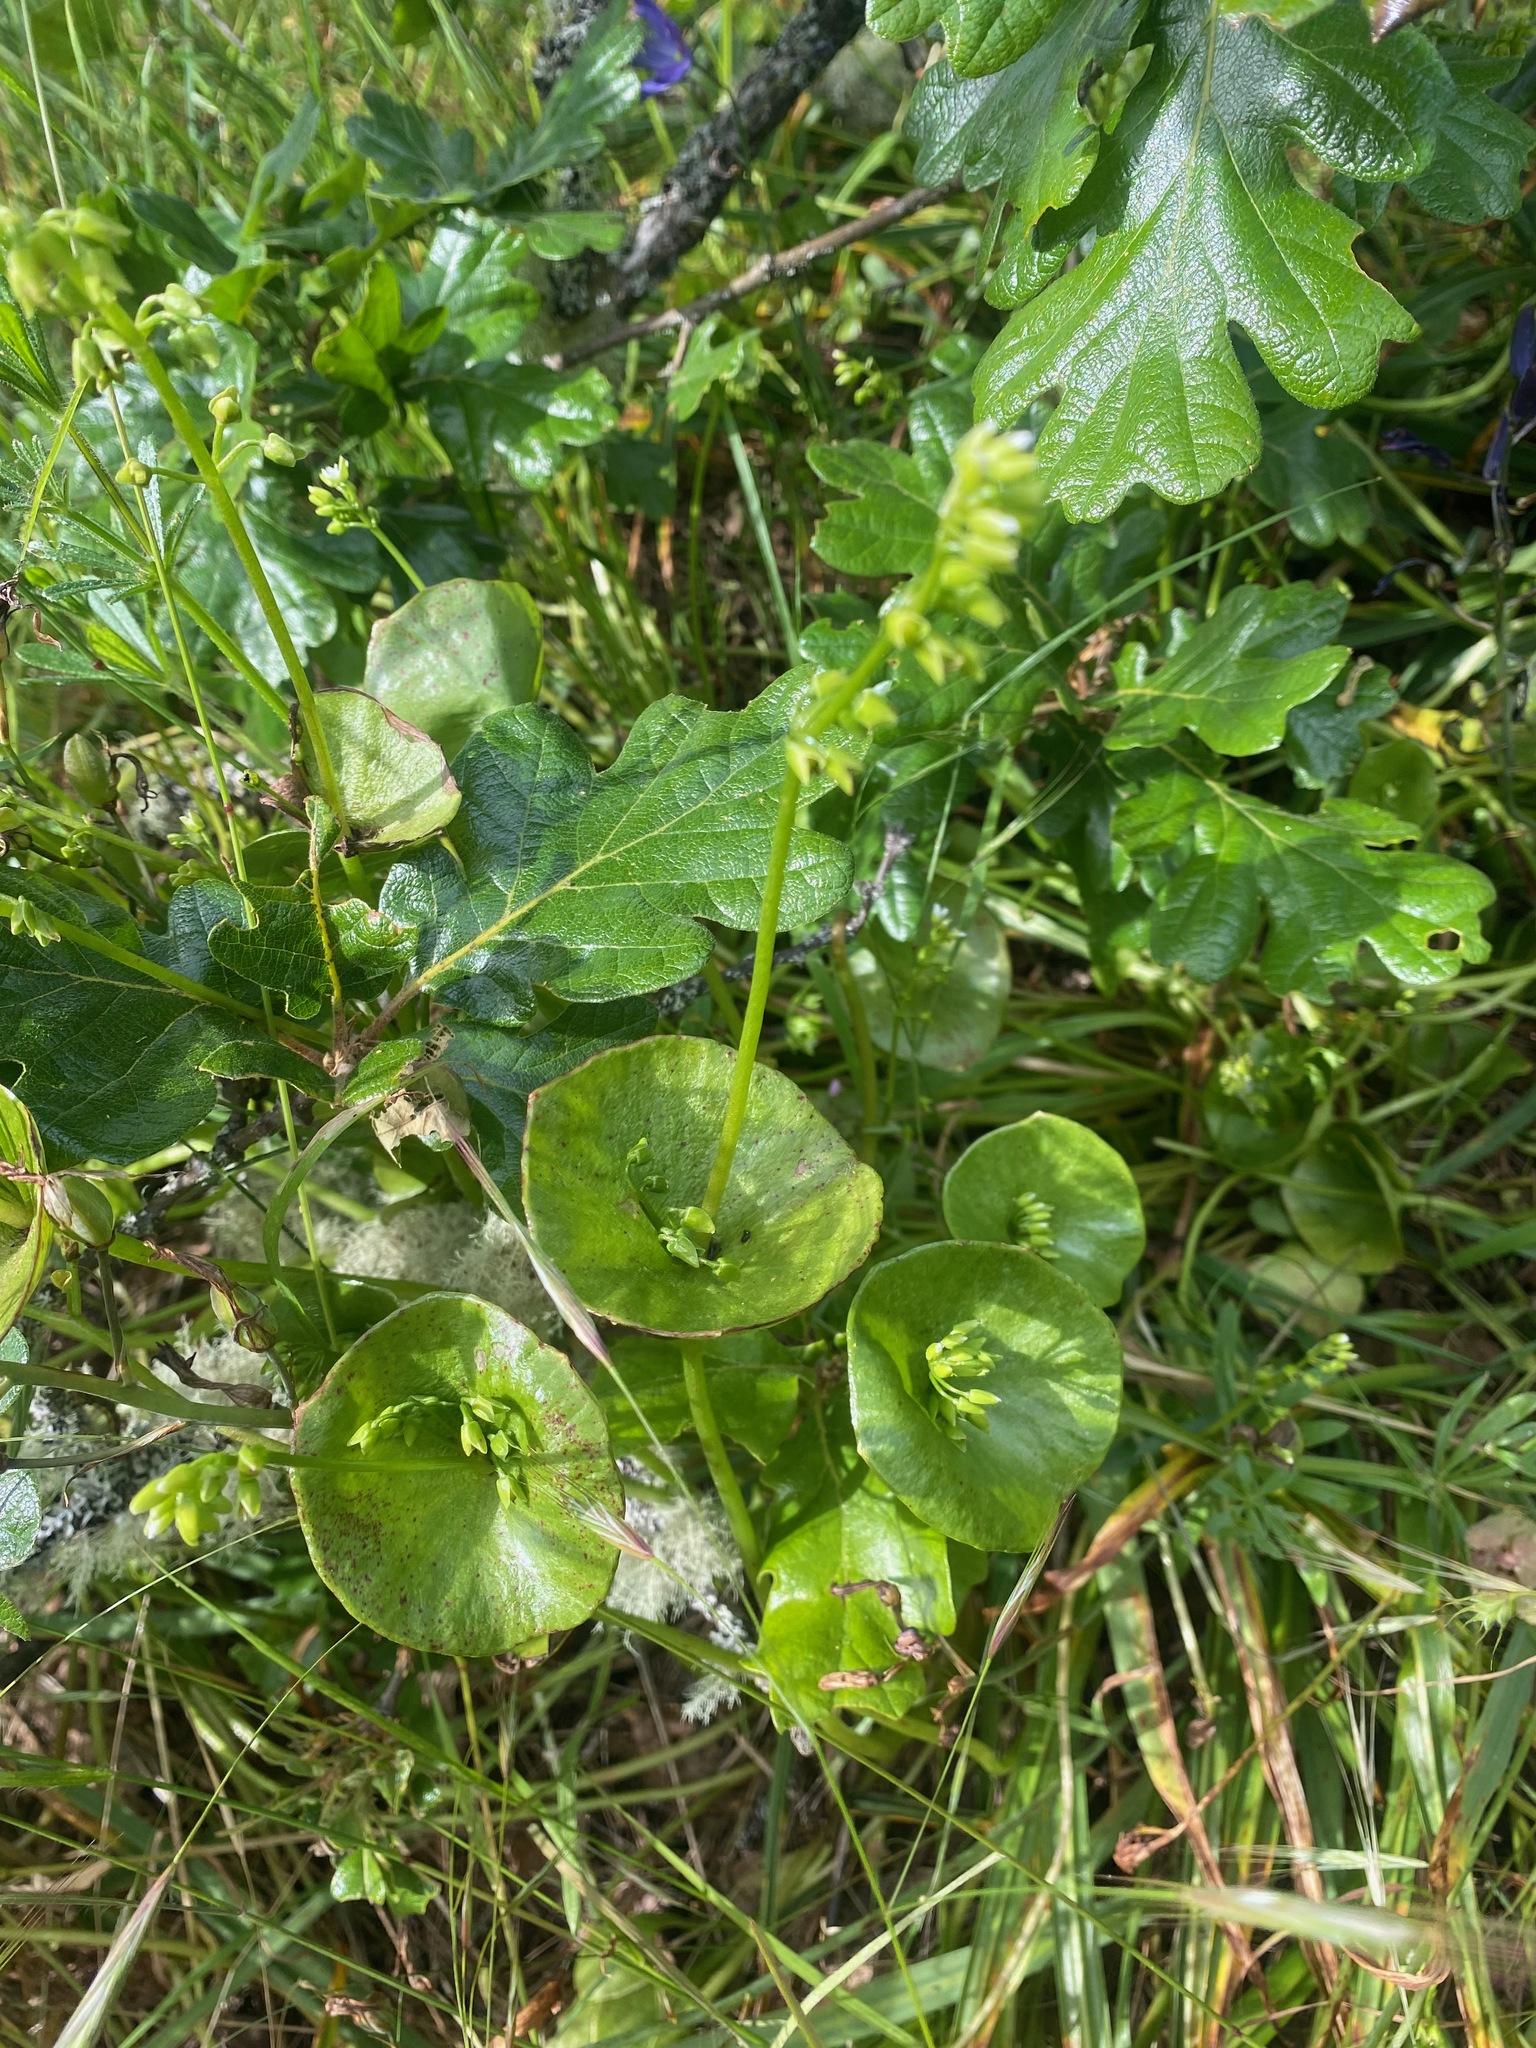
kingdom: Plantae
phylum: Tracheophyta
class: Magnoliopsida
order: Caryophyllales
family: Montiaceae
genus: Claytonia
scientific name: Claytonia perfoliata
